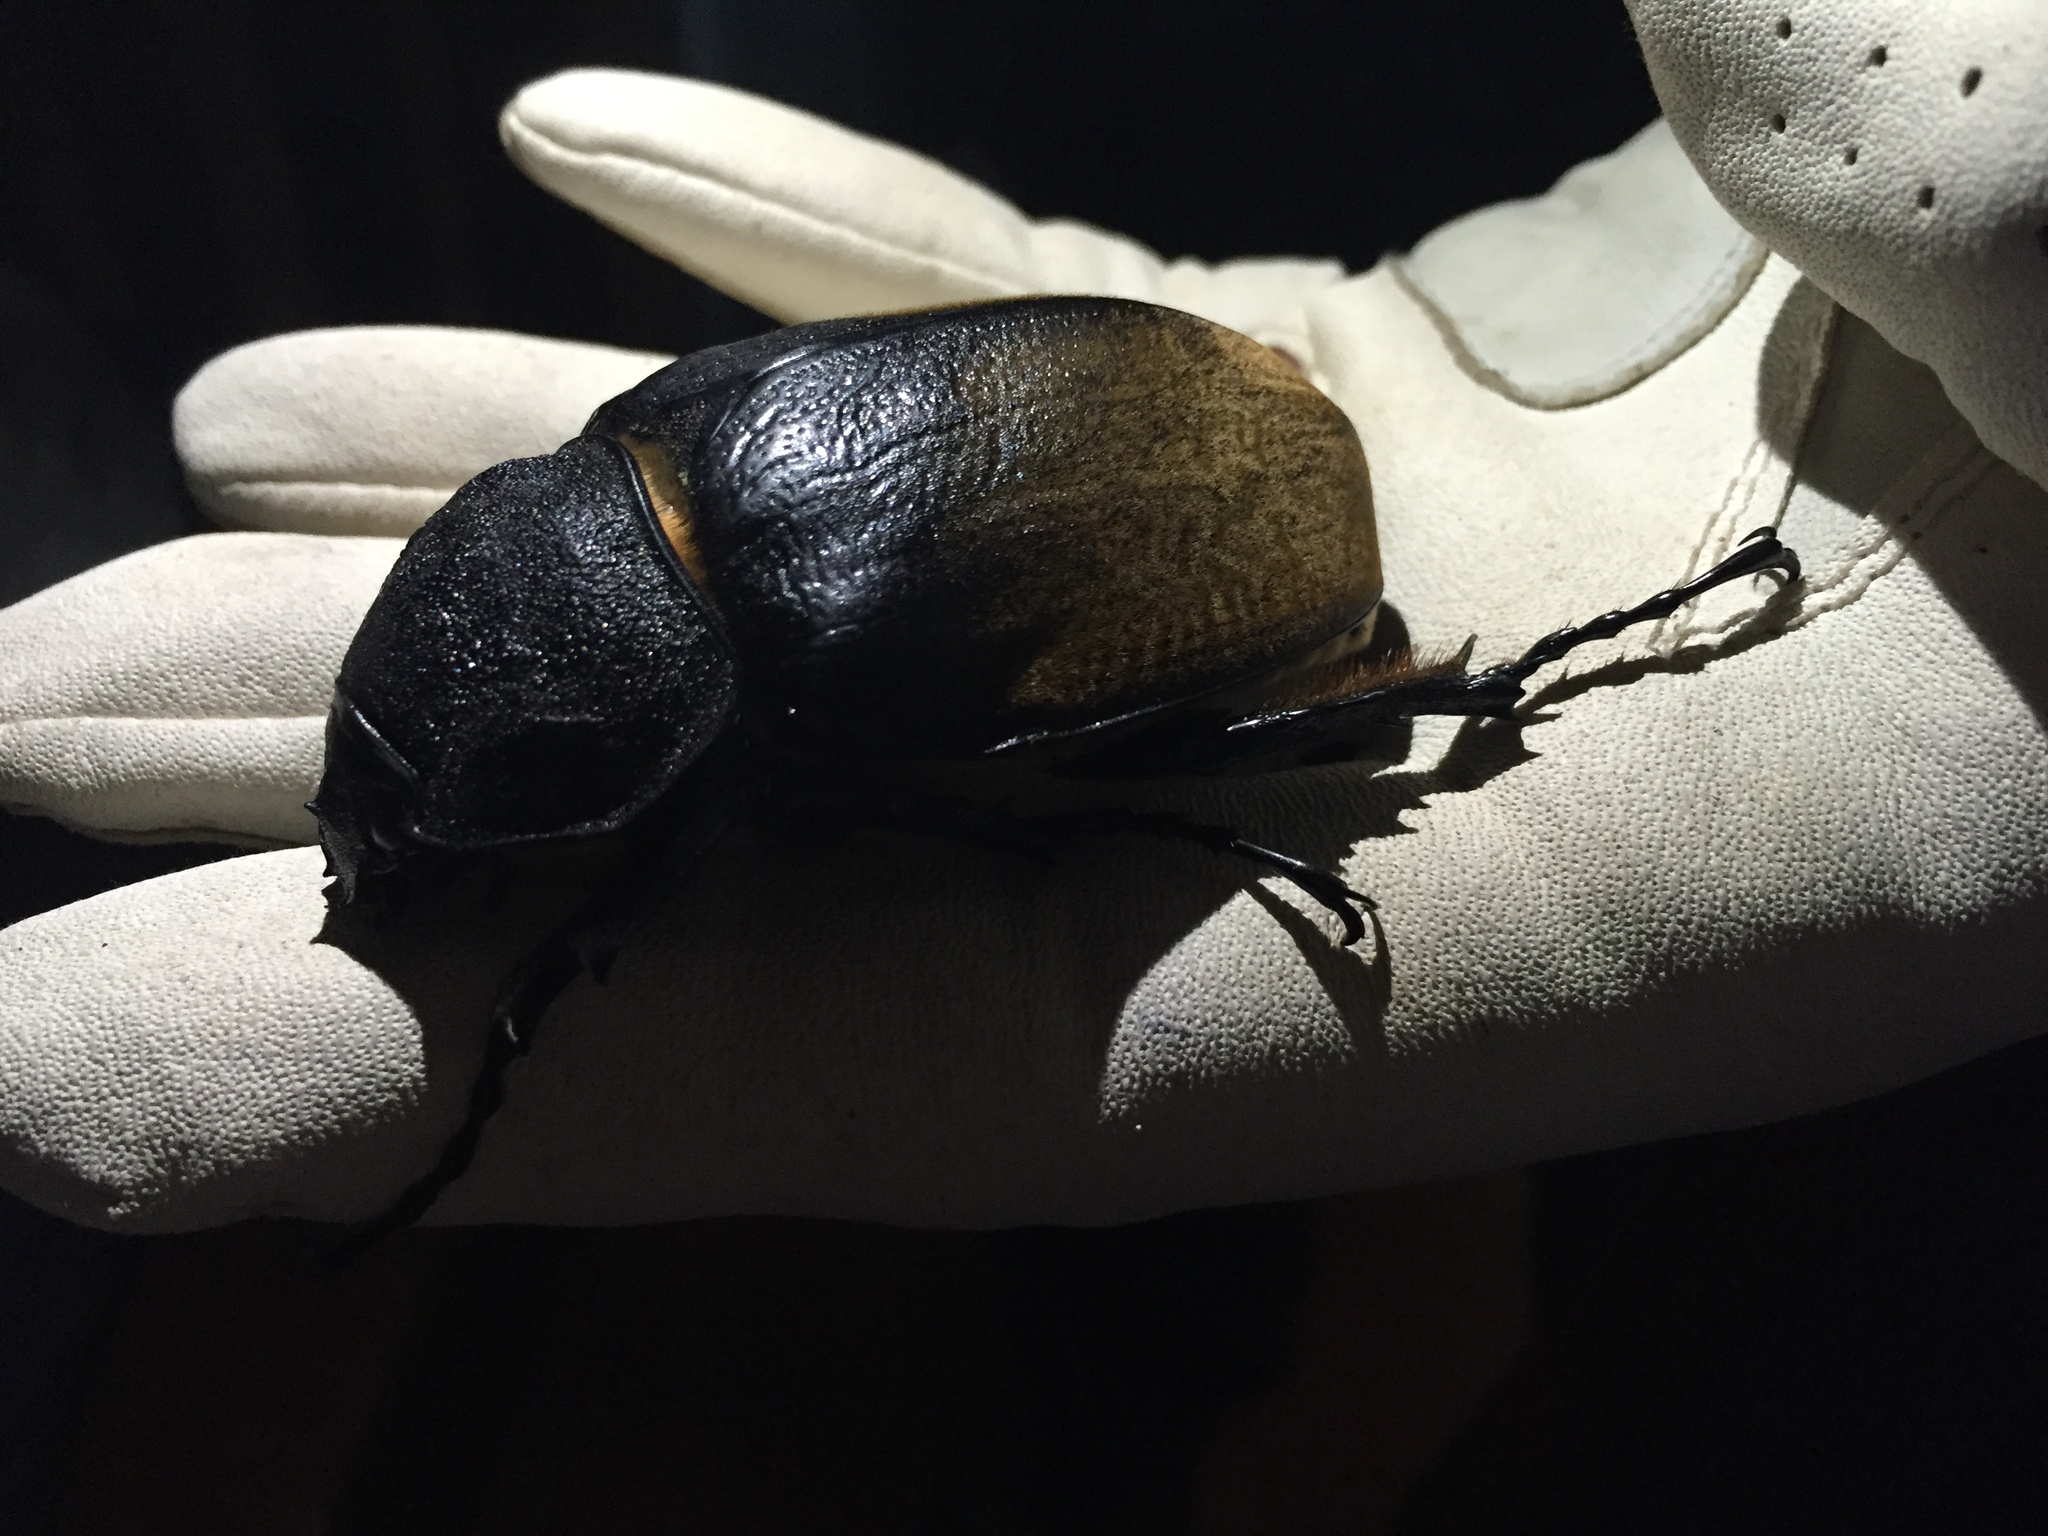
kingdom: Animalia
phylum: Arthropoda
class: Insecta
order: Coleoptera
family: Scarabaeidae
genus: Megasoma
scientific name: Megasoma elephas
